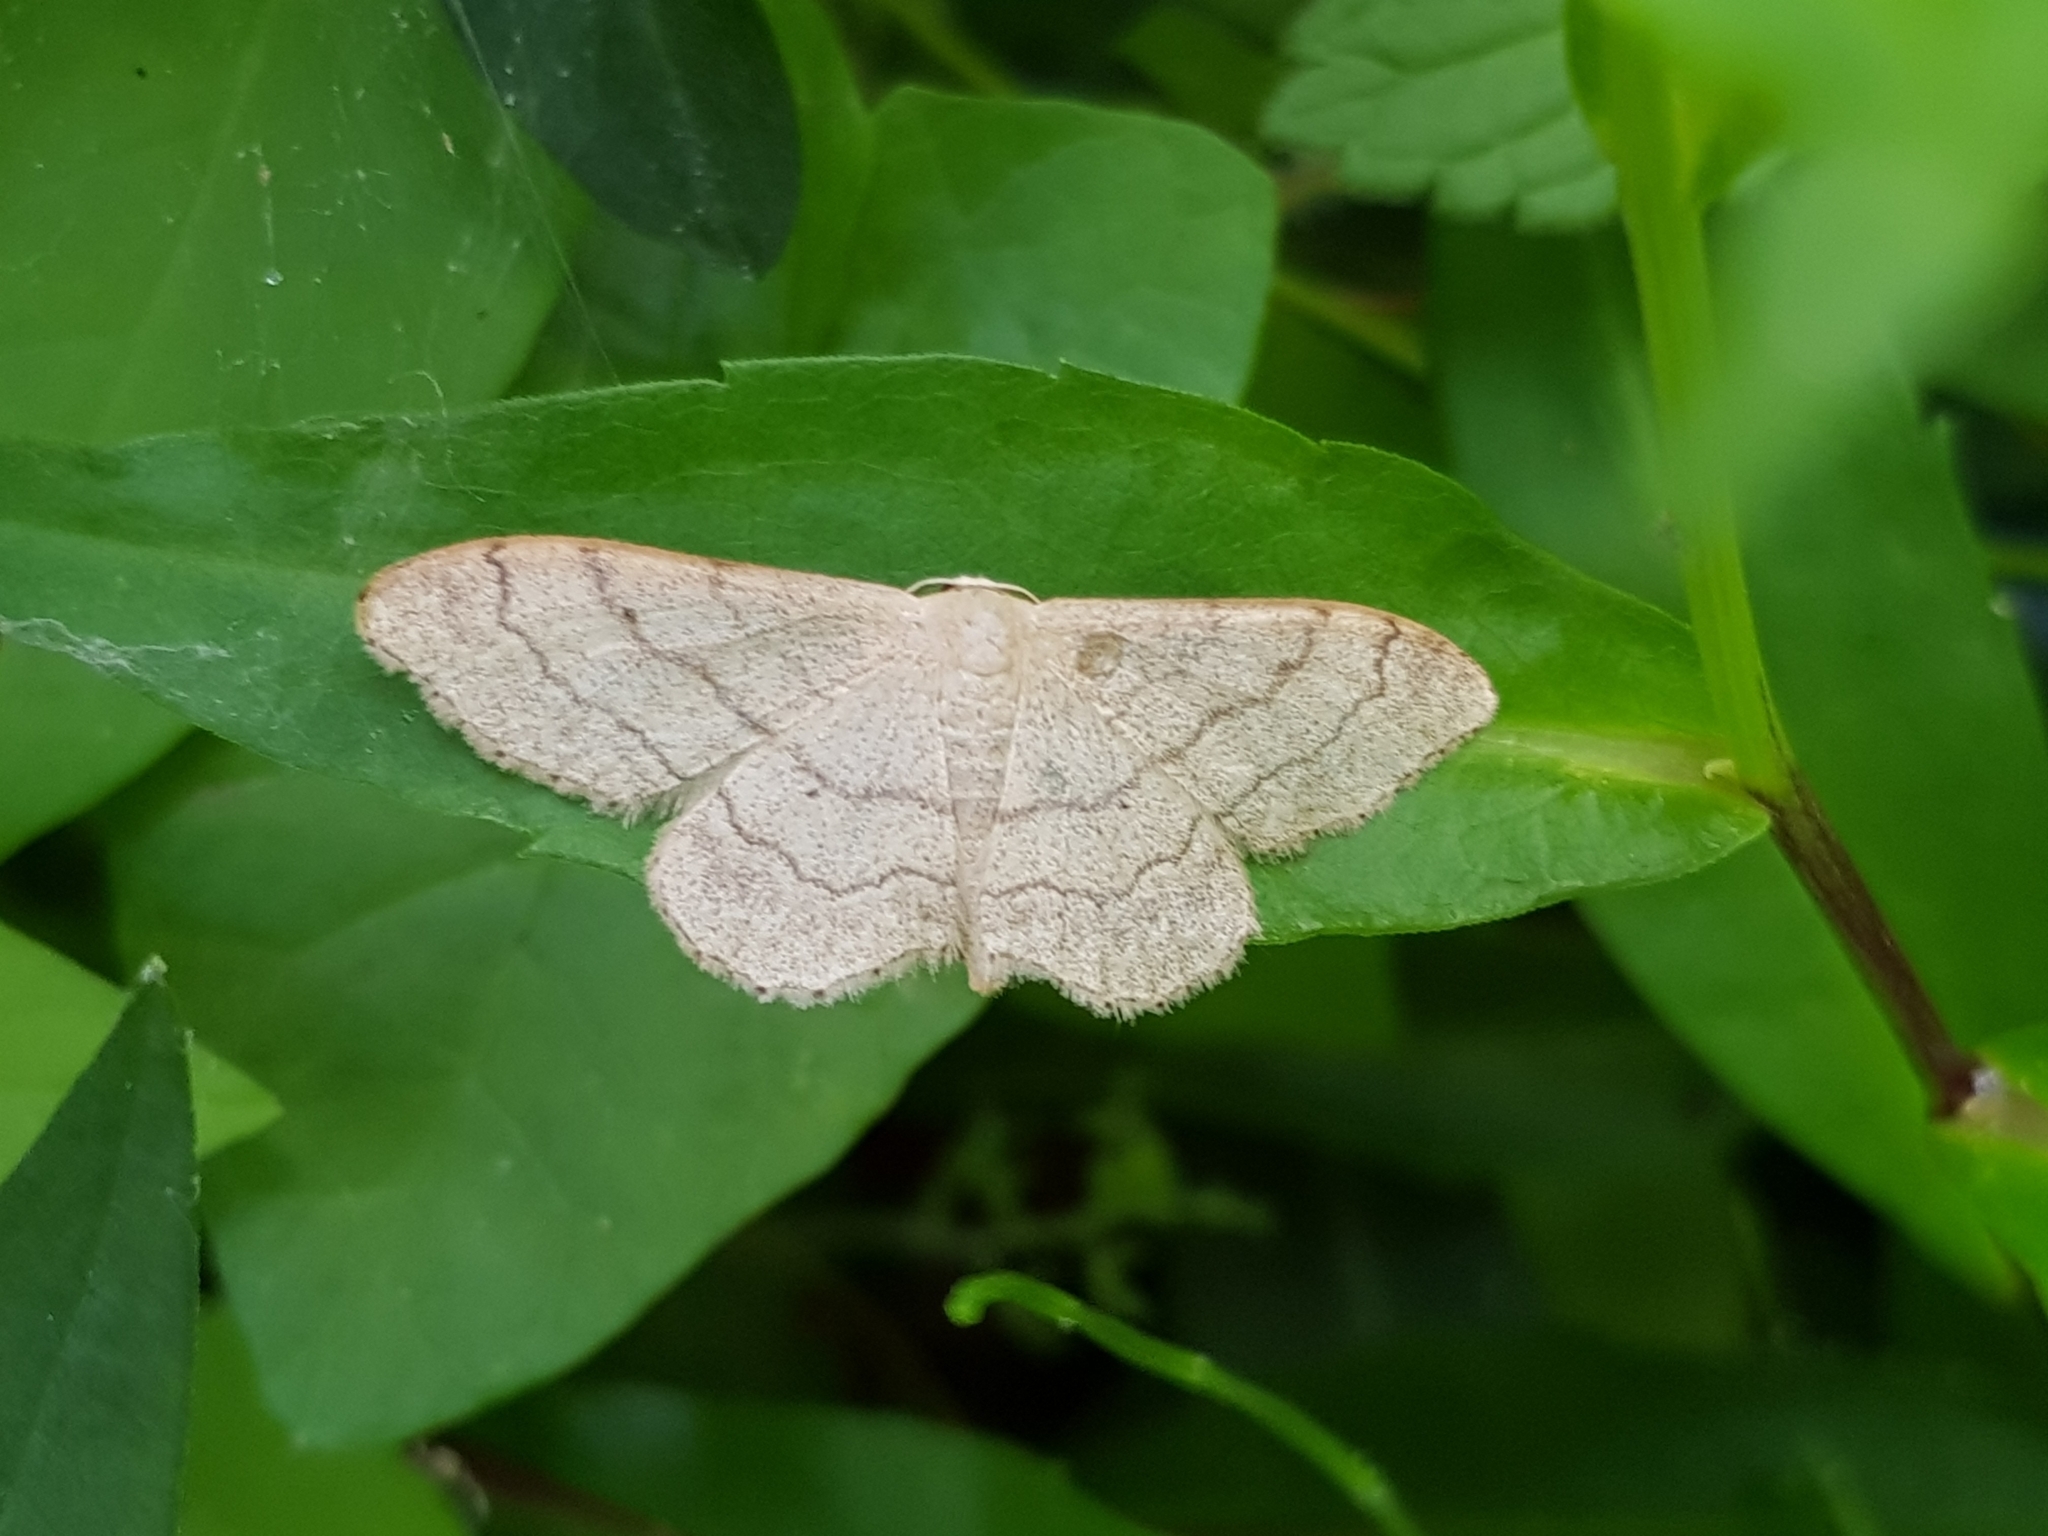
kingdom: Animalia
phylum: Arthropoda
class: Insecta
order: Lepidoptera
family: Geometridae
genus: Idaea
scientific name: Idaea aversata
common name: Riband wave
